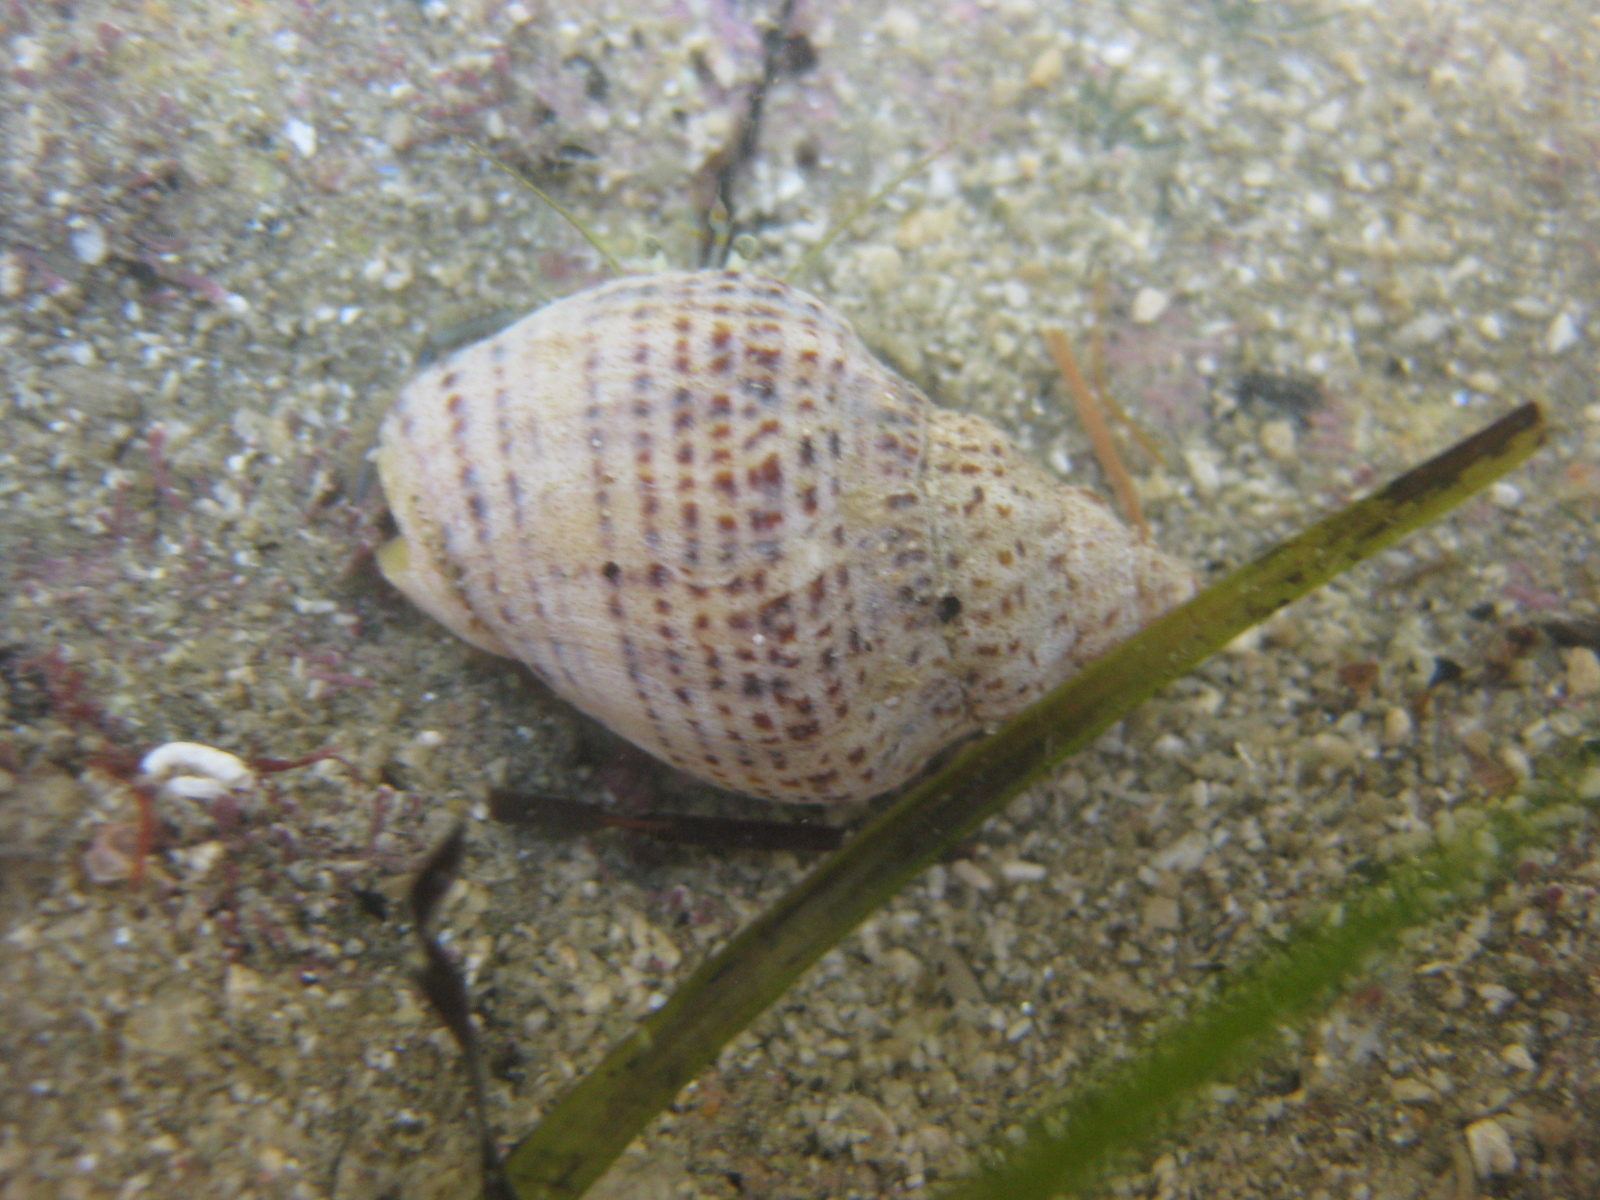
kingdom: Animalia
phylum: Mollusca
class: Gastropoda
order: Neogastropoda
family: Cominellidae
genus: Cominella
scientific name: Cominella adspersa
